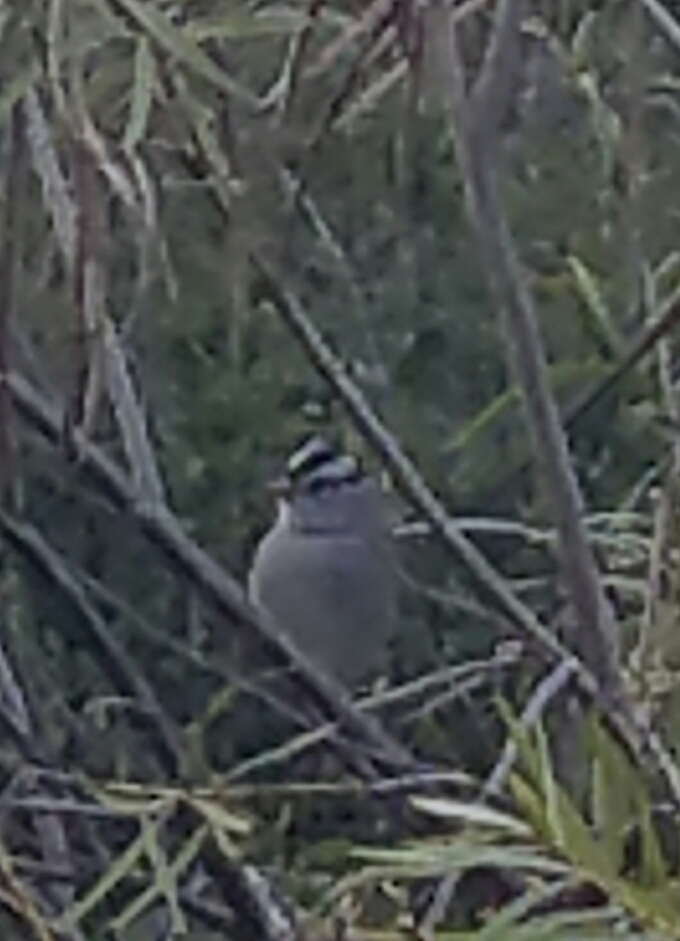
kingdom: Animalia
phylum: Chordata
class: Aves
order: Passeriformes
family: Passerellidae
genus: Zonotrichia
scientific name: Zonotrichia leucophrys
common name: White-crowned sparrow
